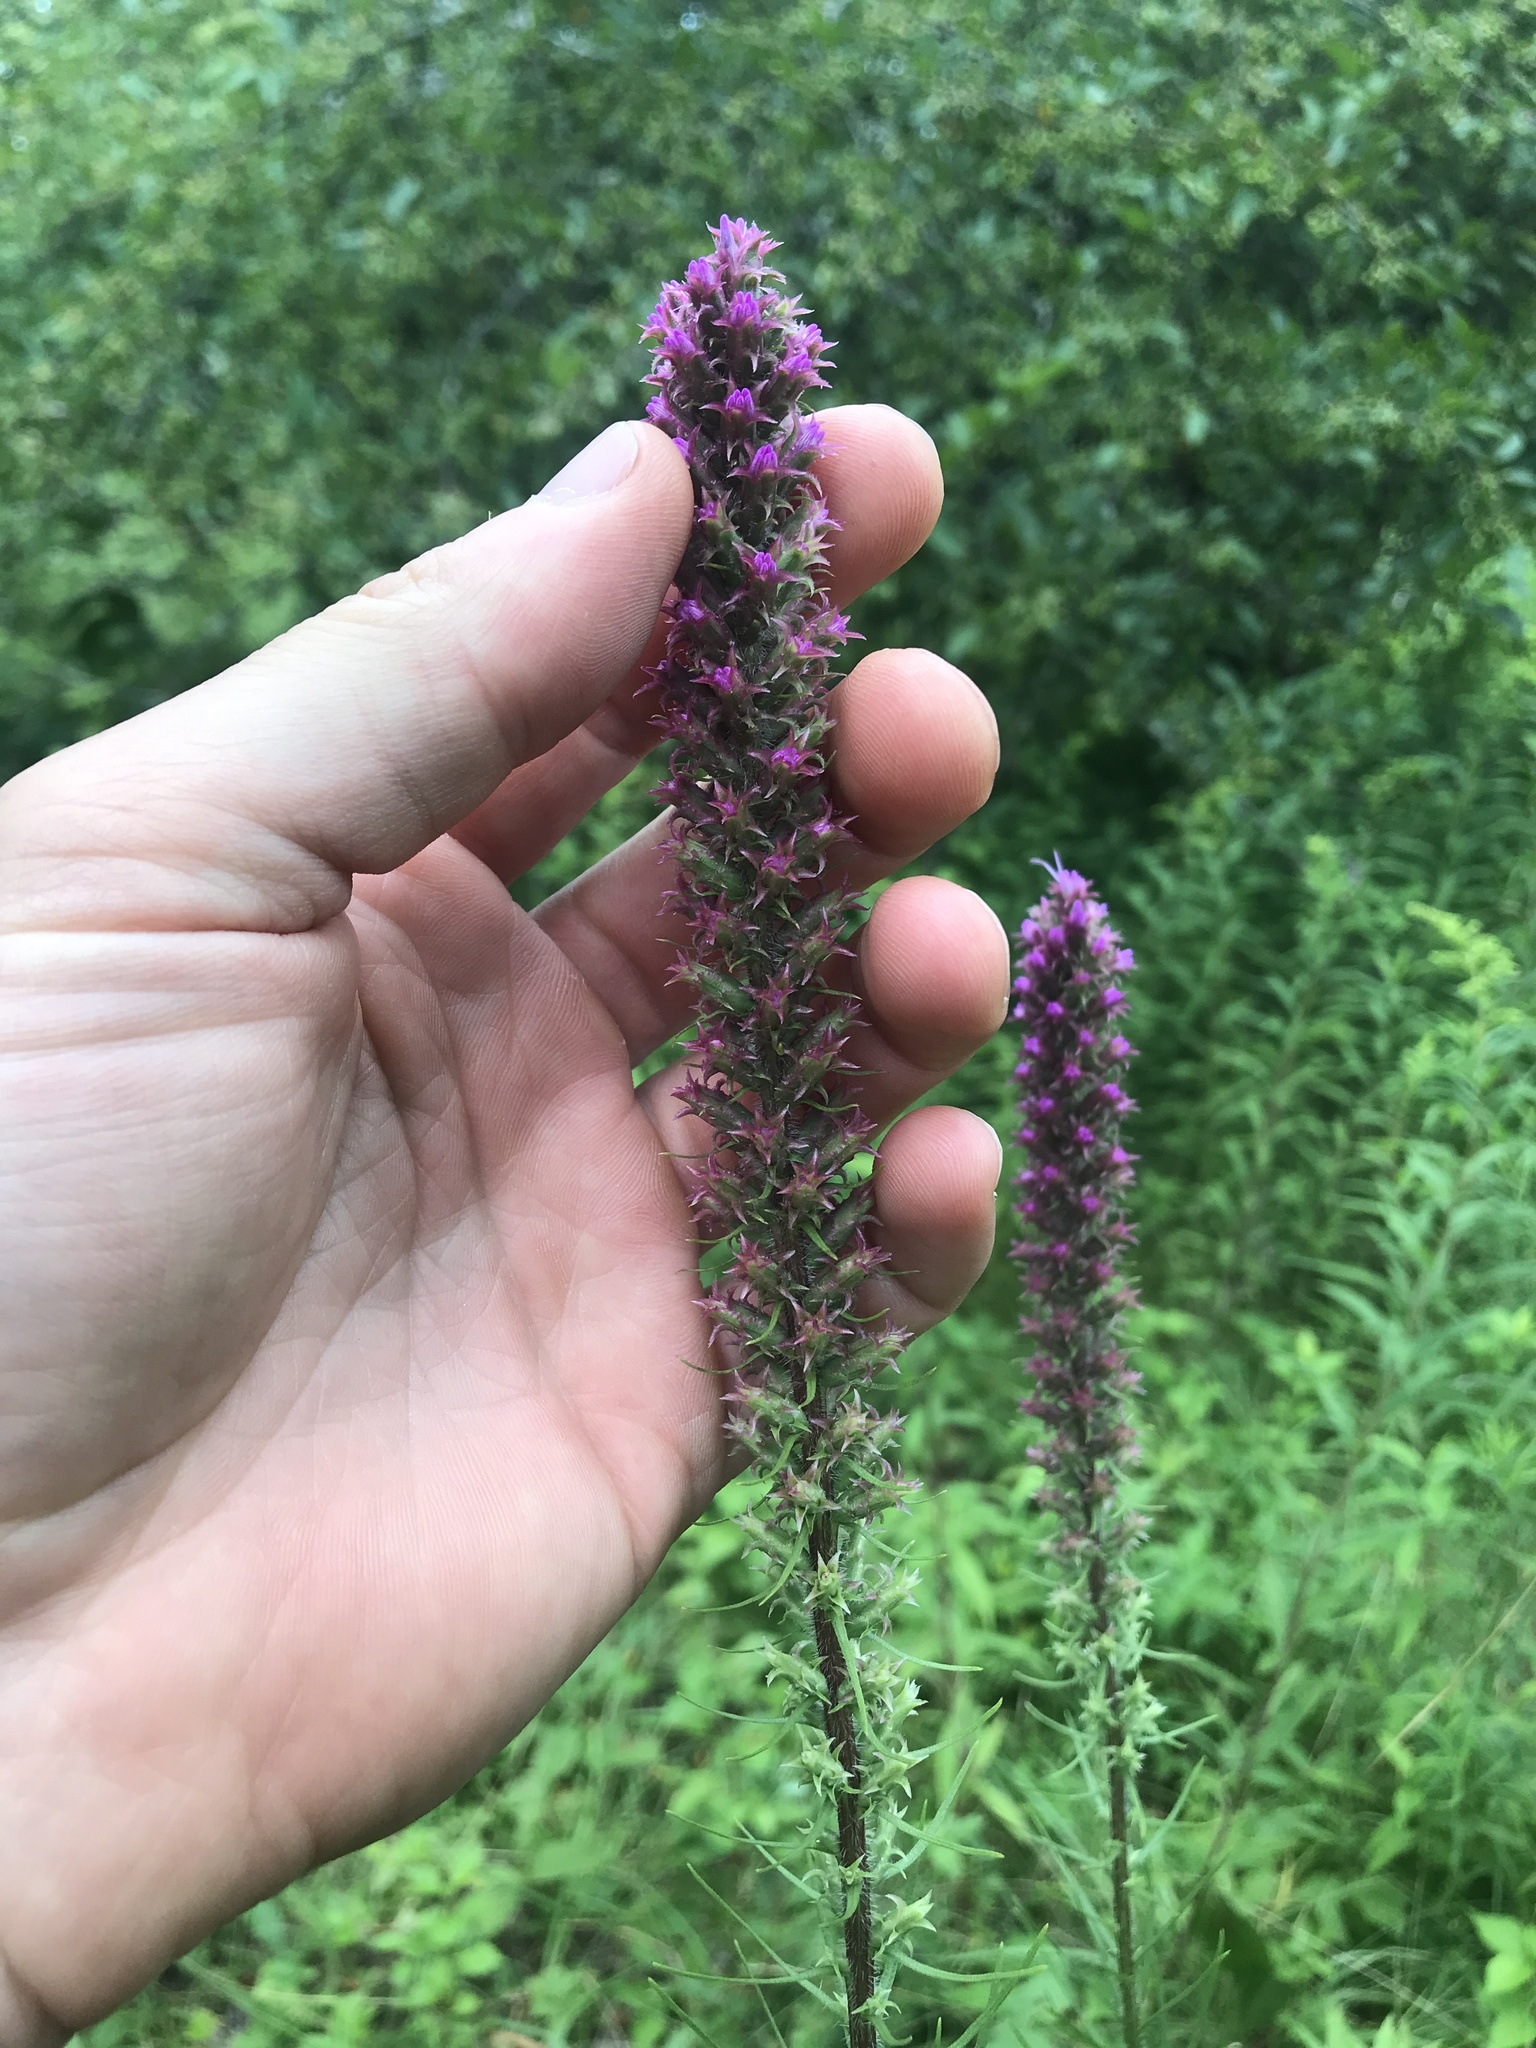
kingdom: Plantae
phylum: Tracheophyta
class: Magnoliopsida
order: Asterales
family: Asteraceae
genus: Liatris
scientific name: Liatris pycnostachya
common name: Cattail gayfeather
